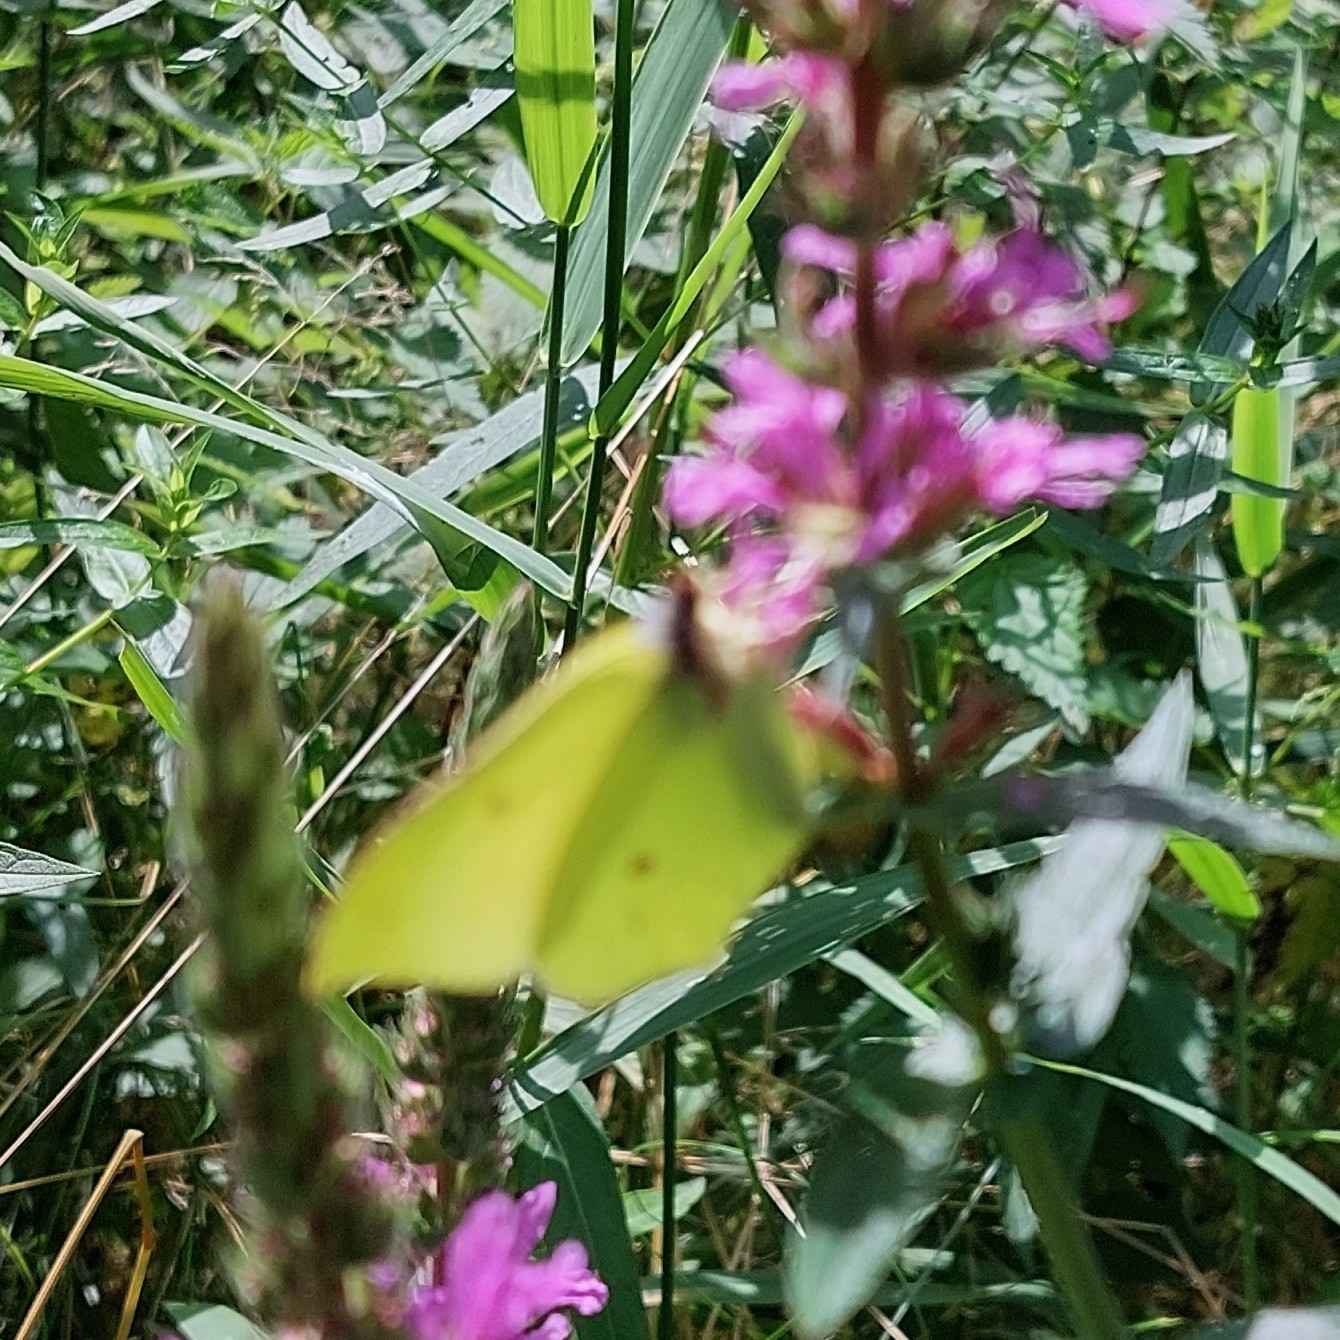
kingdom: Animalia
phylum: Arthropoda
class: Insecta
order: Lepidoptera
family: Pieridae
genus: Gonepteryx
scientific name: Gonepteryx rhamni
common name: Brimstone
